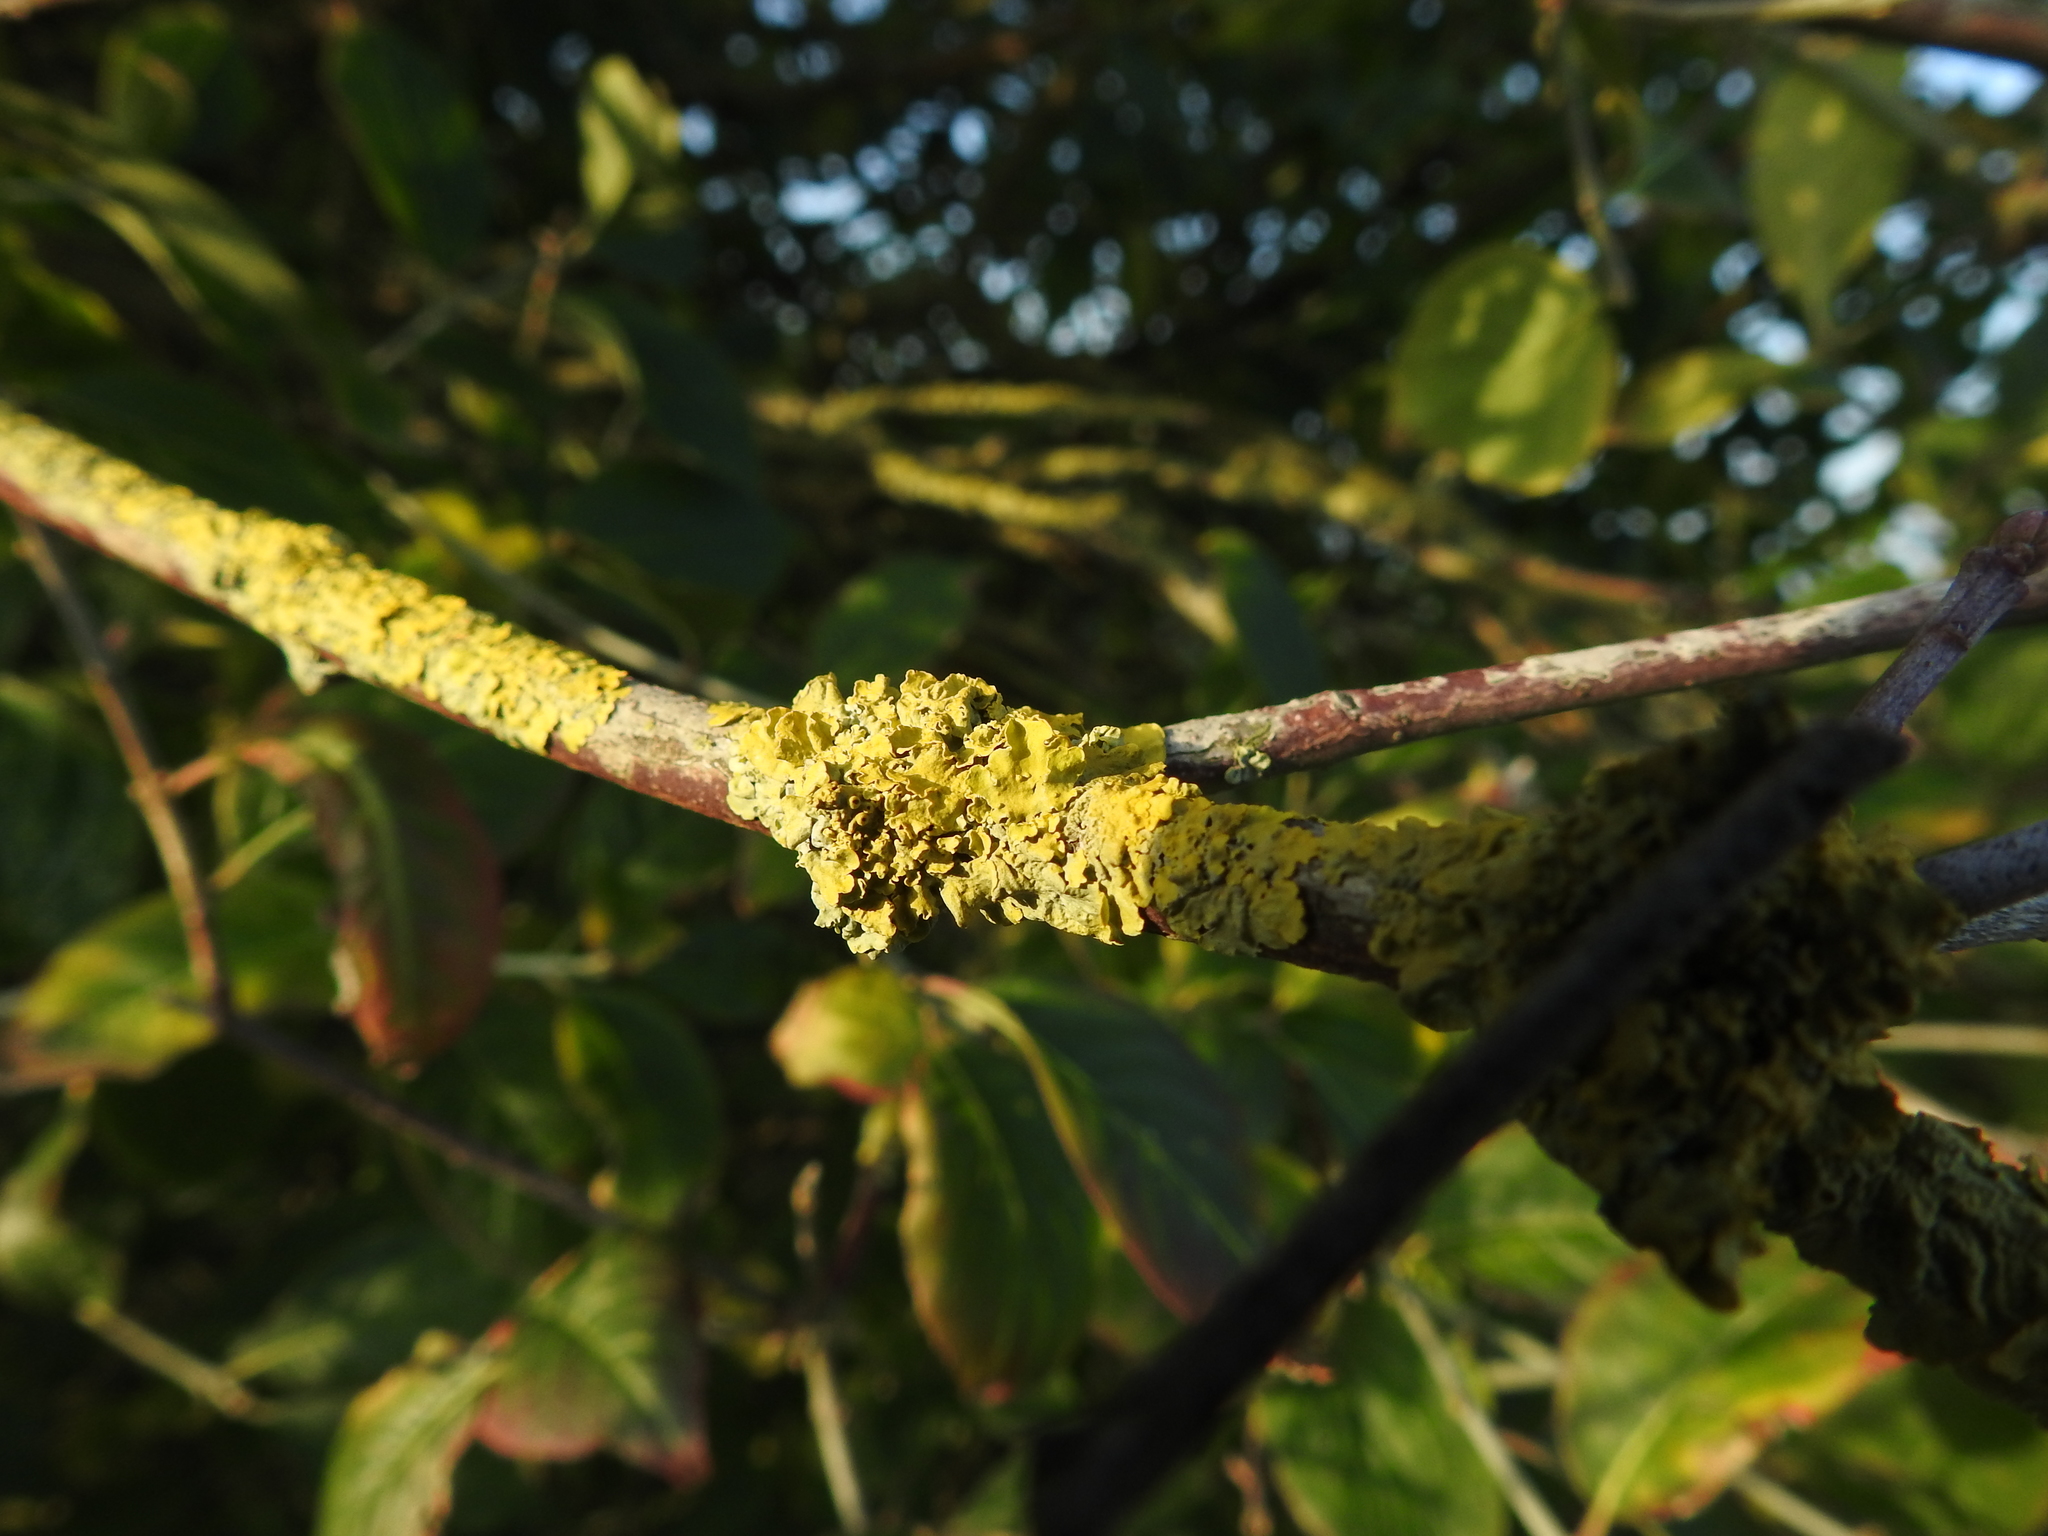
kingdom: Fungi
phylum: Ascomycota
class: Lecanoromycetes
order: Teloschistales
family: Teloschistaceae
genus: Xanthoria
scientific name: Xanthoria parietina
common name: Common orange lichen
